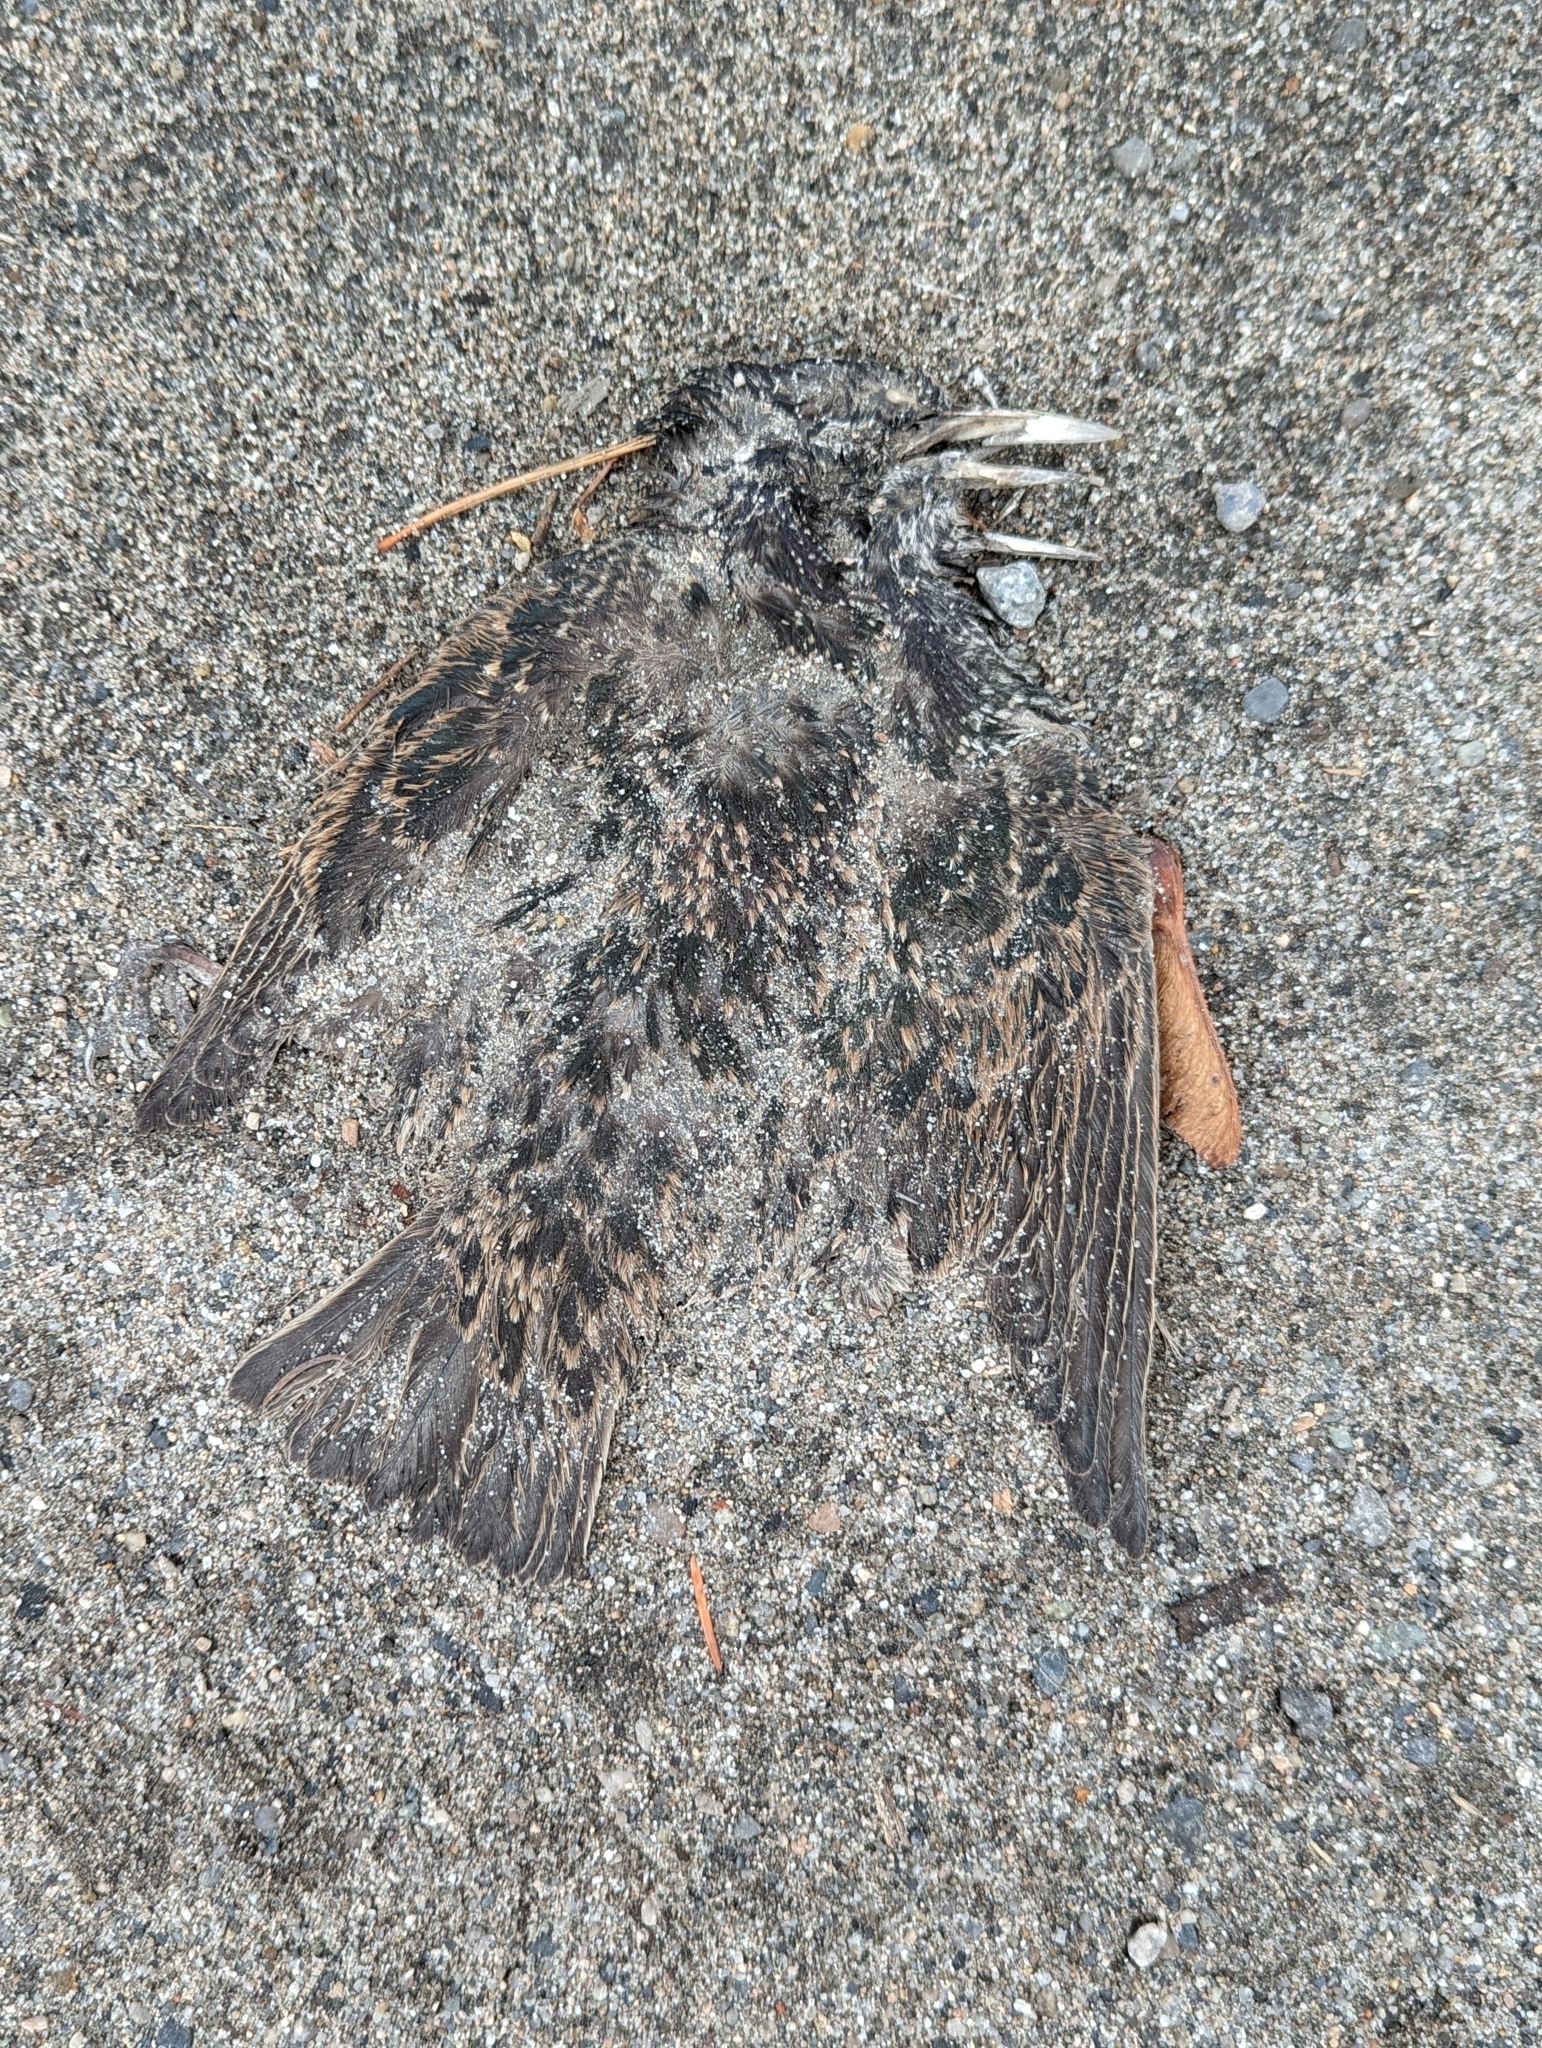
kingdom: Animalia
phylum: Chordata
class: Aves
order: Passeriformes
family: Sturnidae
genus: Sturnus
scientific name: Sturnus vulgaris
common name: Common starling
